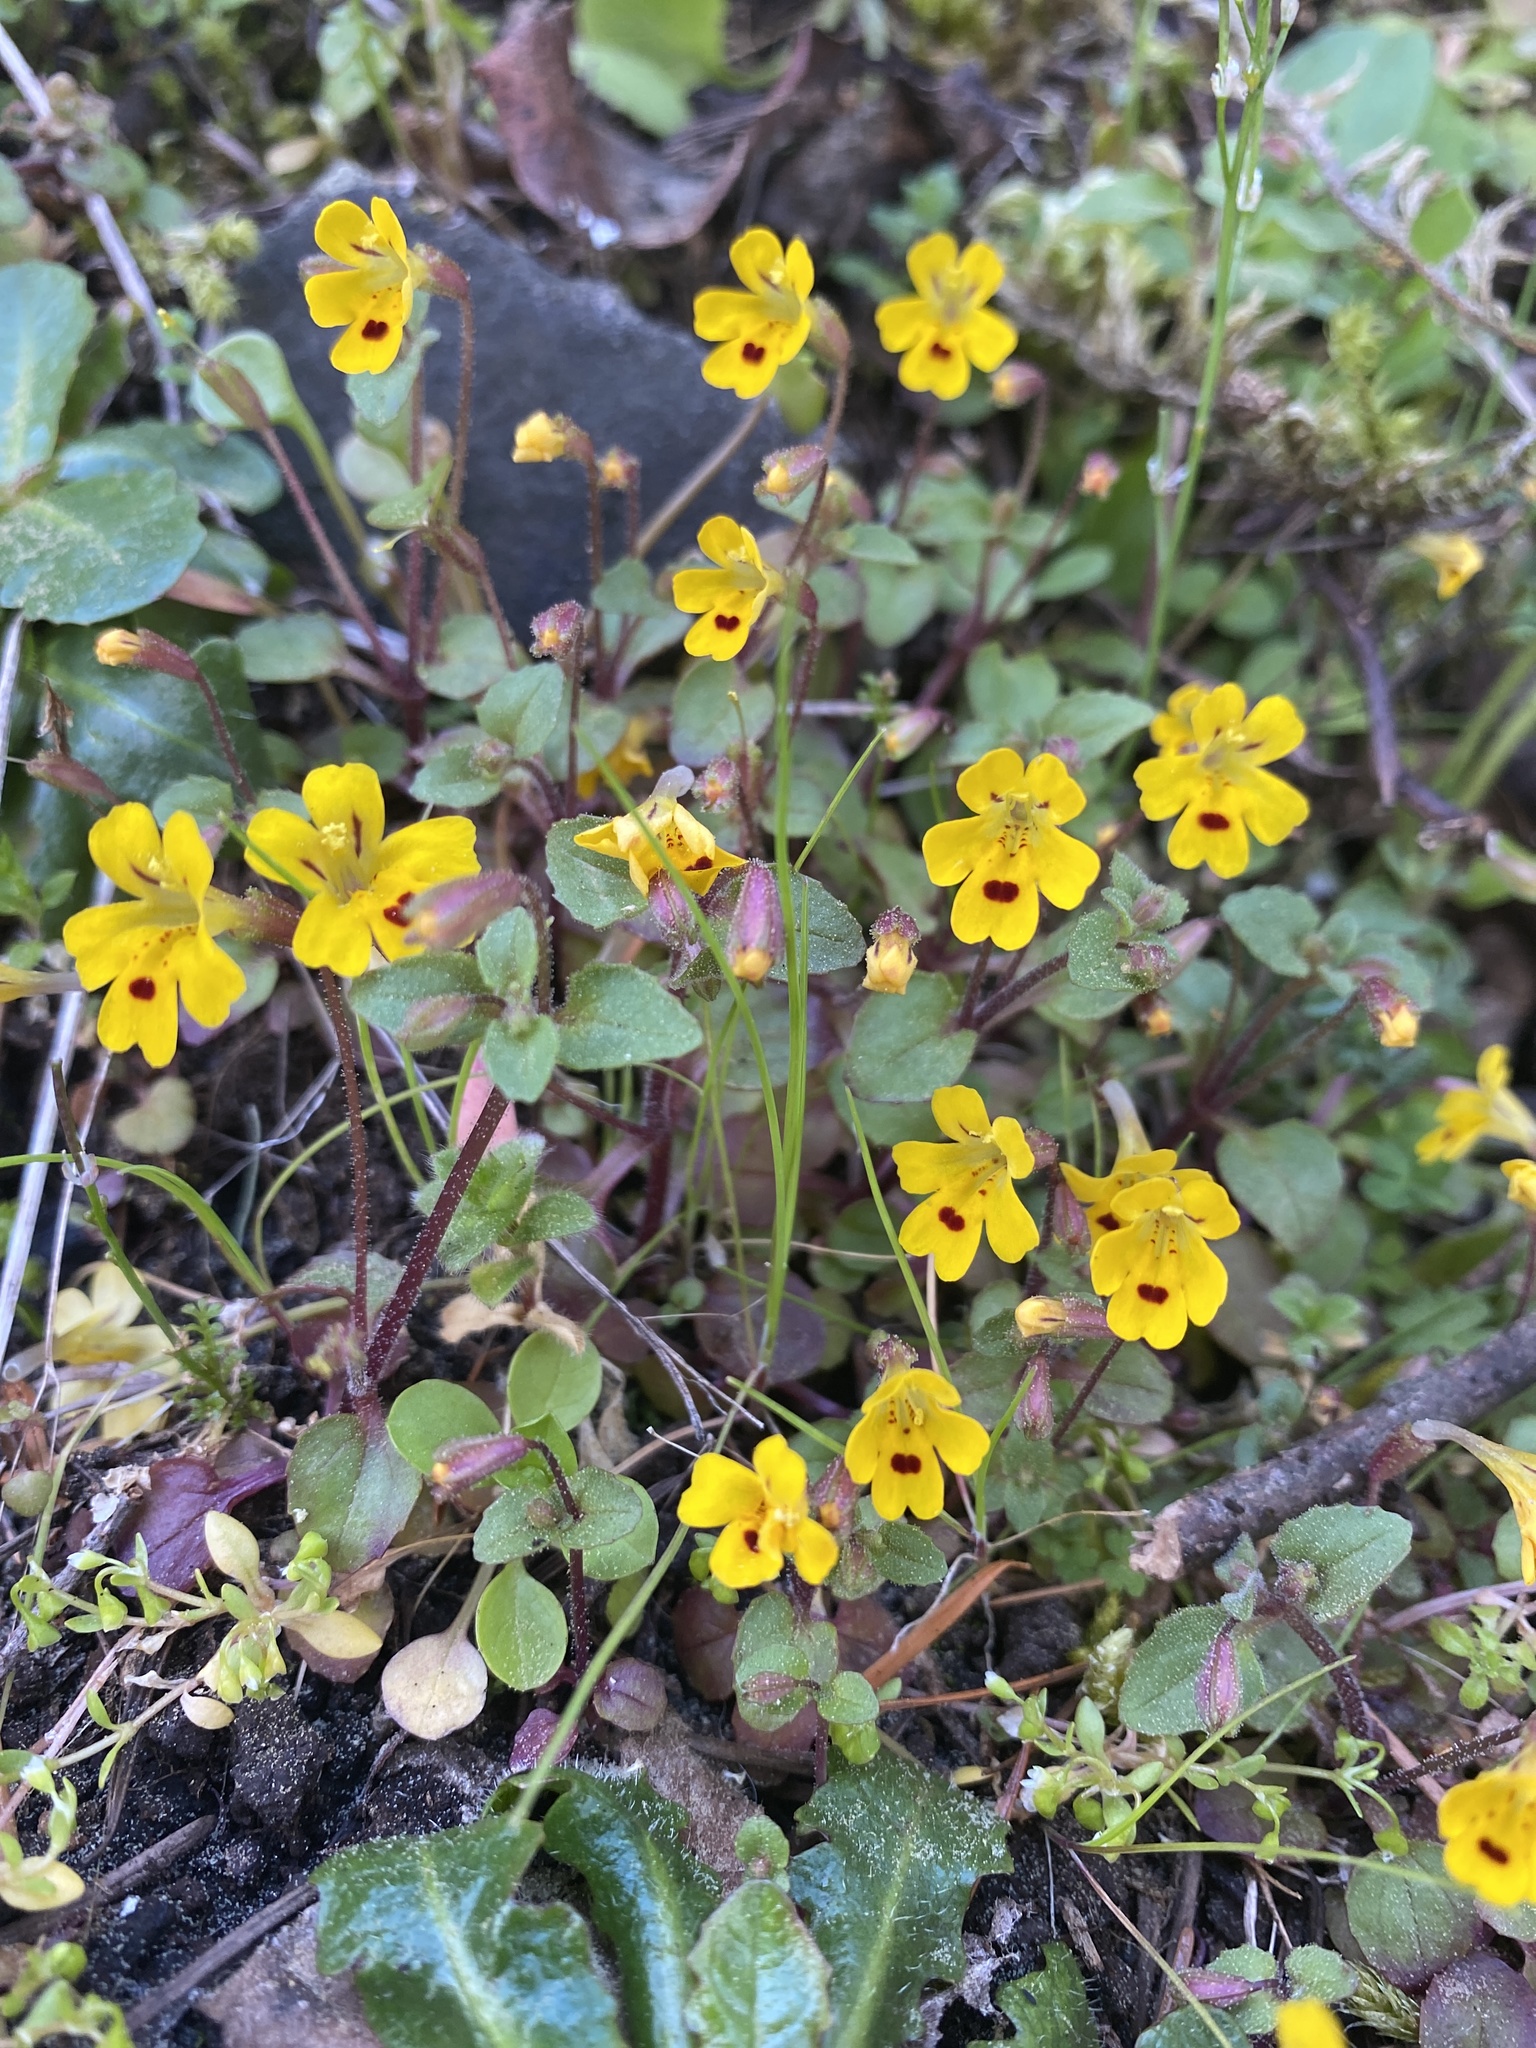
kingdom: Plantae
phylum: Tracheophyta
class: Magnoliopsida
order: Lamiales
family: Phrymaceae
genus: Erythranthe
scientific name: Erythranthe alsinoides
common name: Chickweed monkeyflower
